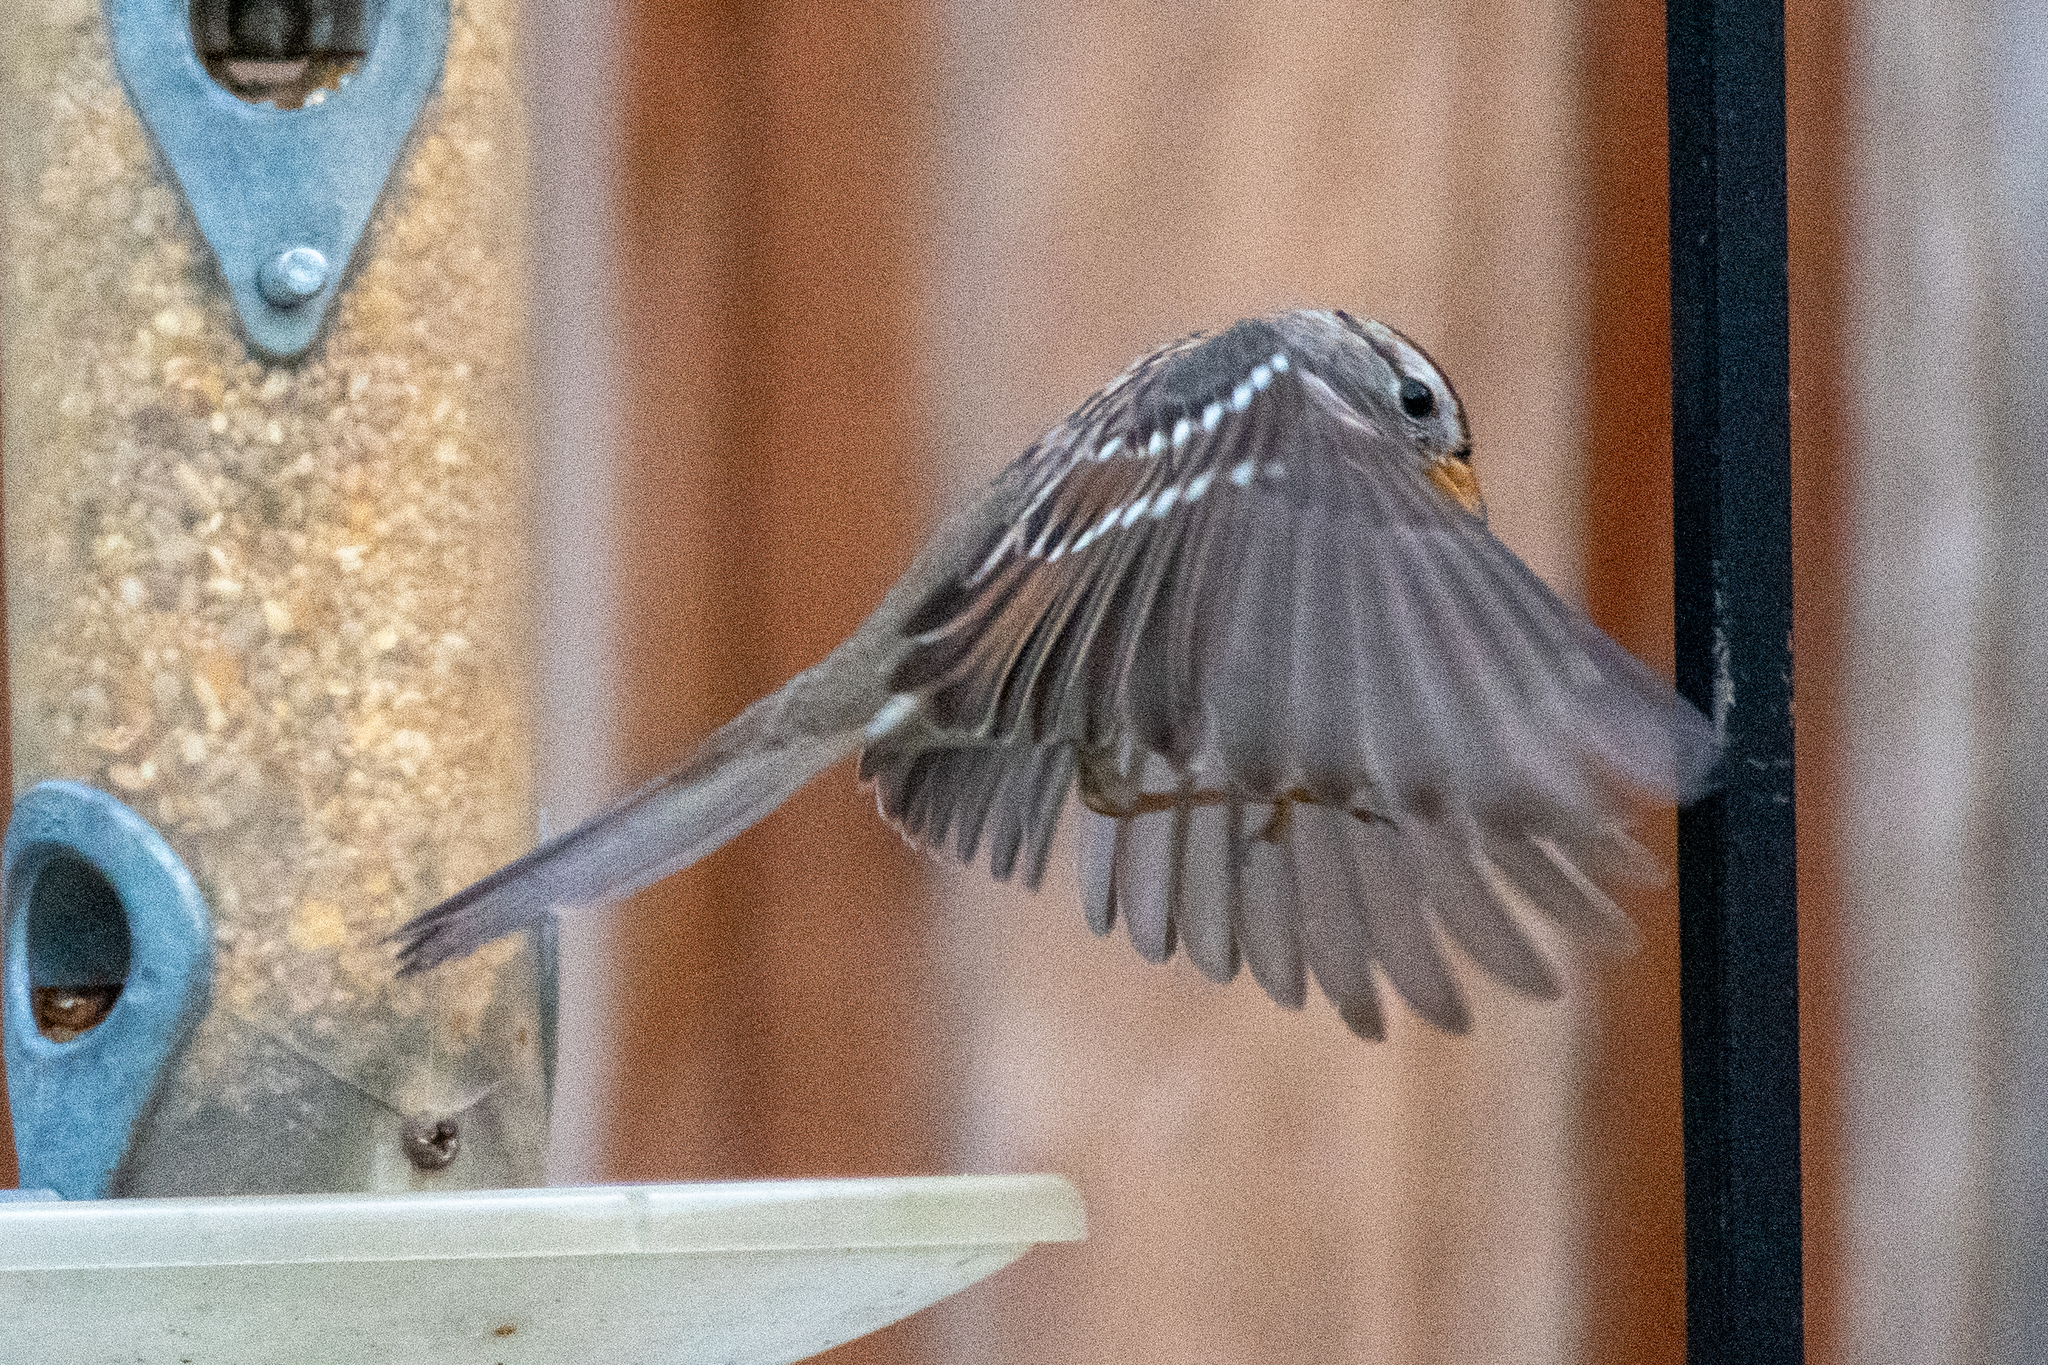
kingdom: Animalia
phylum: Chordata
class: Aves
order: Passeriformes
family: Passerellidae
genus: Zonotrichia
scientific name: Zonotrichia leucophrys
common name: White-crowned sparrow
